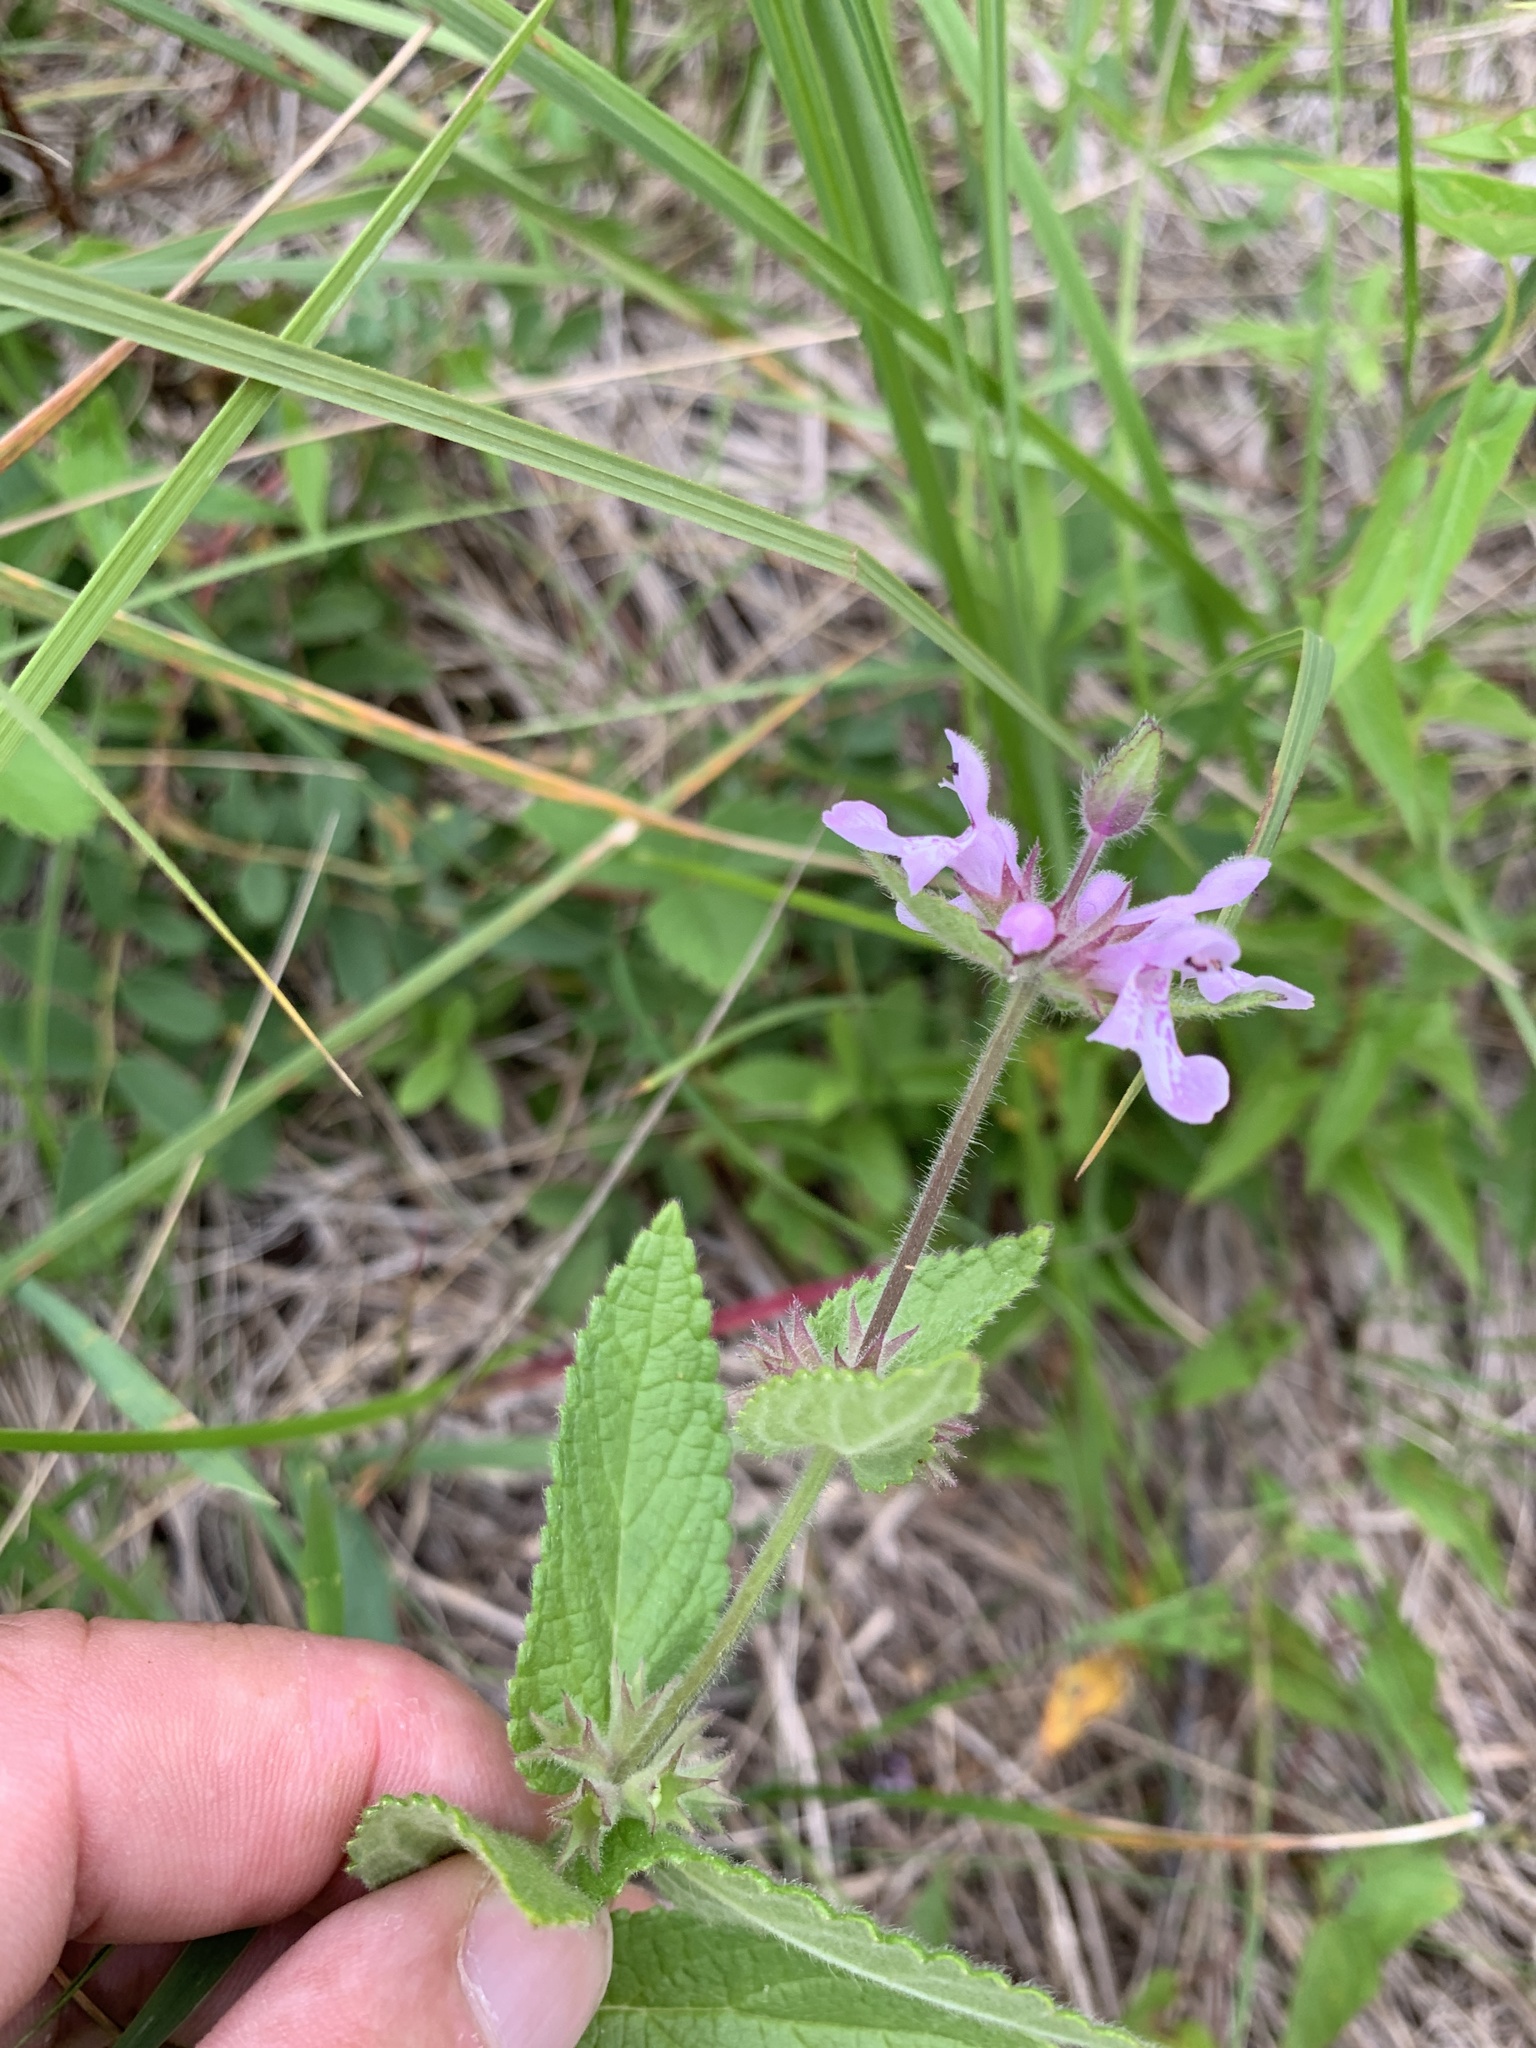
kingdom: Plantae
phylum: Tracheophyta
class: Magnoliopsida
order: Lamiales
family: Lamiaceae
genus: Stachys
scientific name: Stachys palustris
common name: Marsh woundwort
